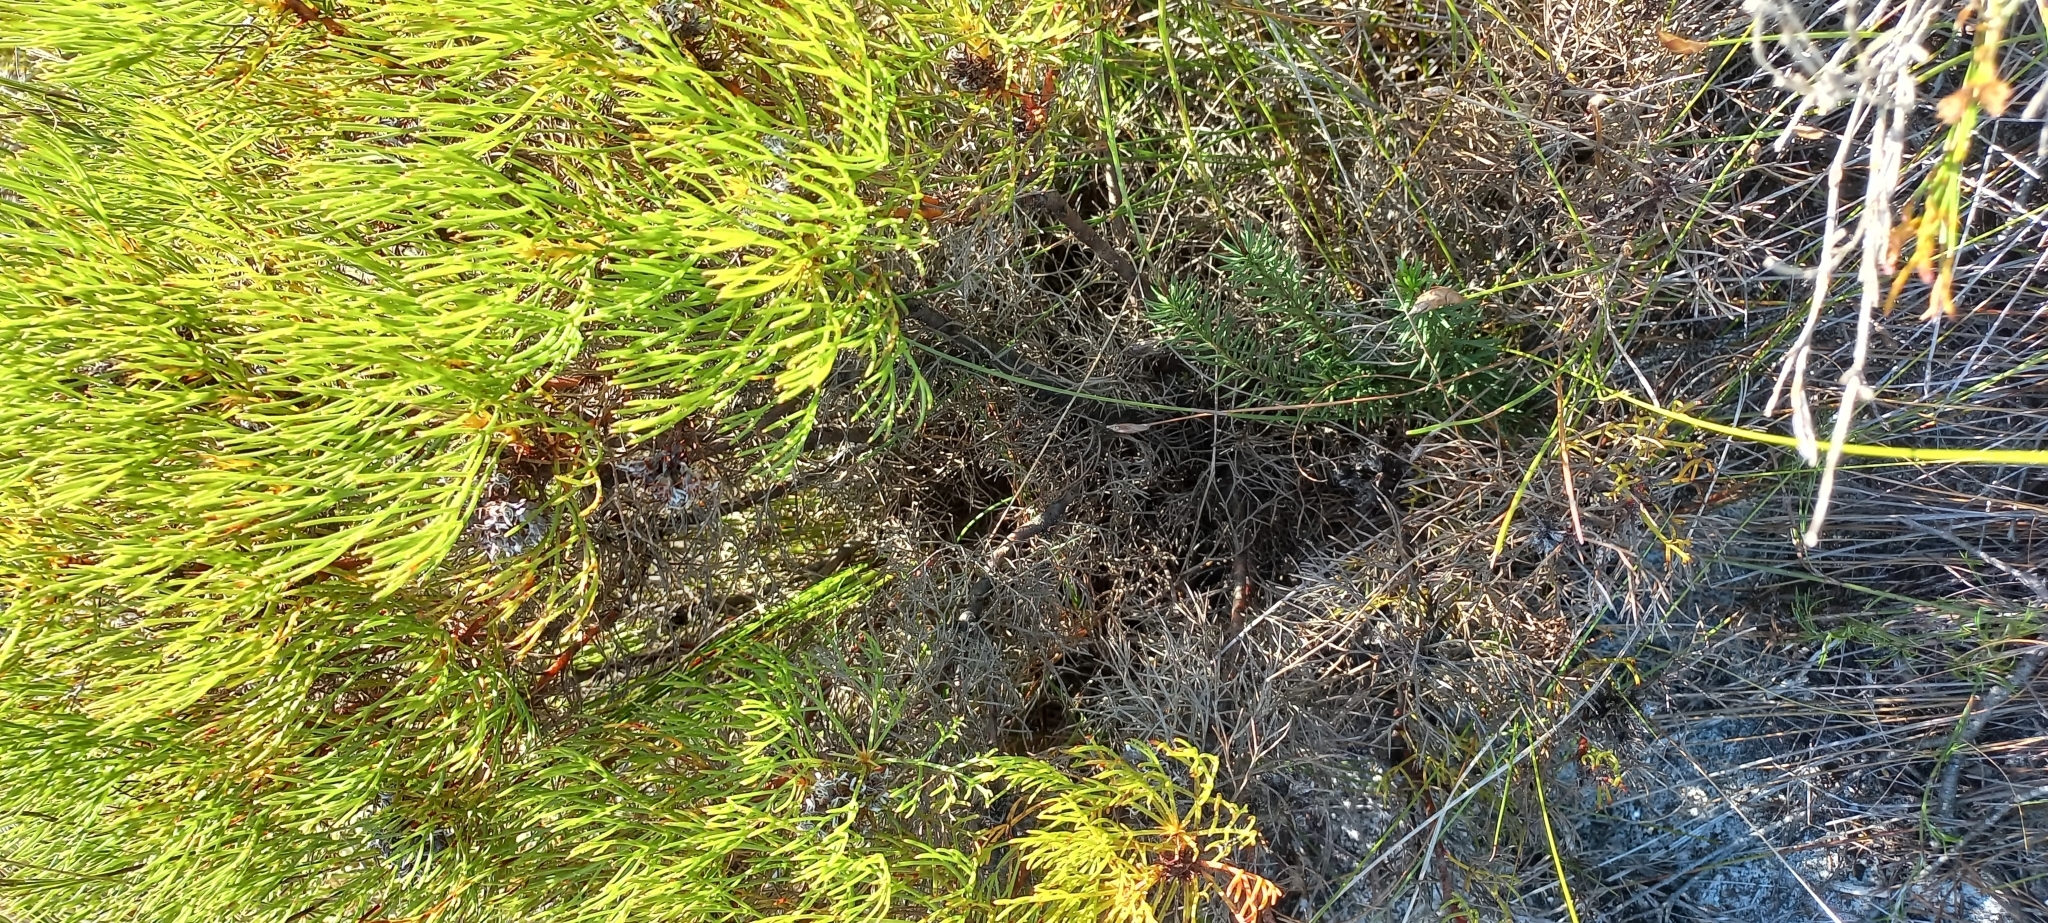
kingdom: Plantae
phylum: Tracheophyta
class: Magnoliopsida
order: Proteales
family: Proteaceae
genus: Serruria
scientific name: Serruria ascendens
